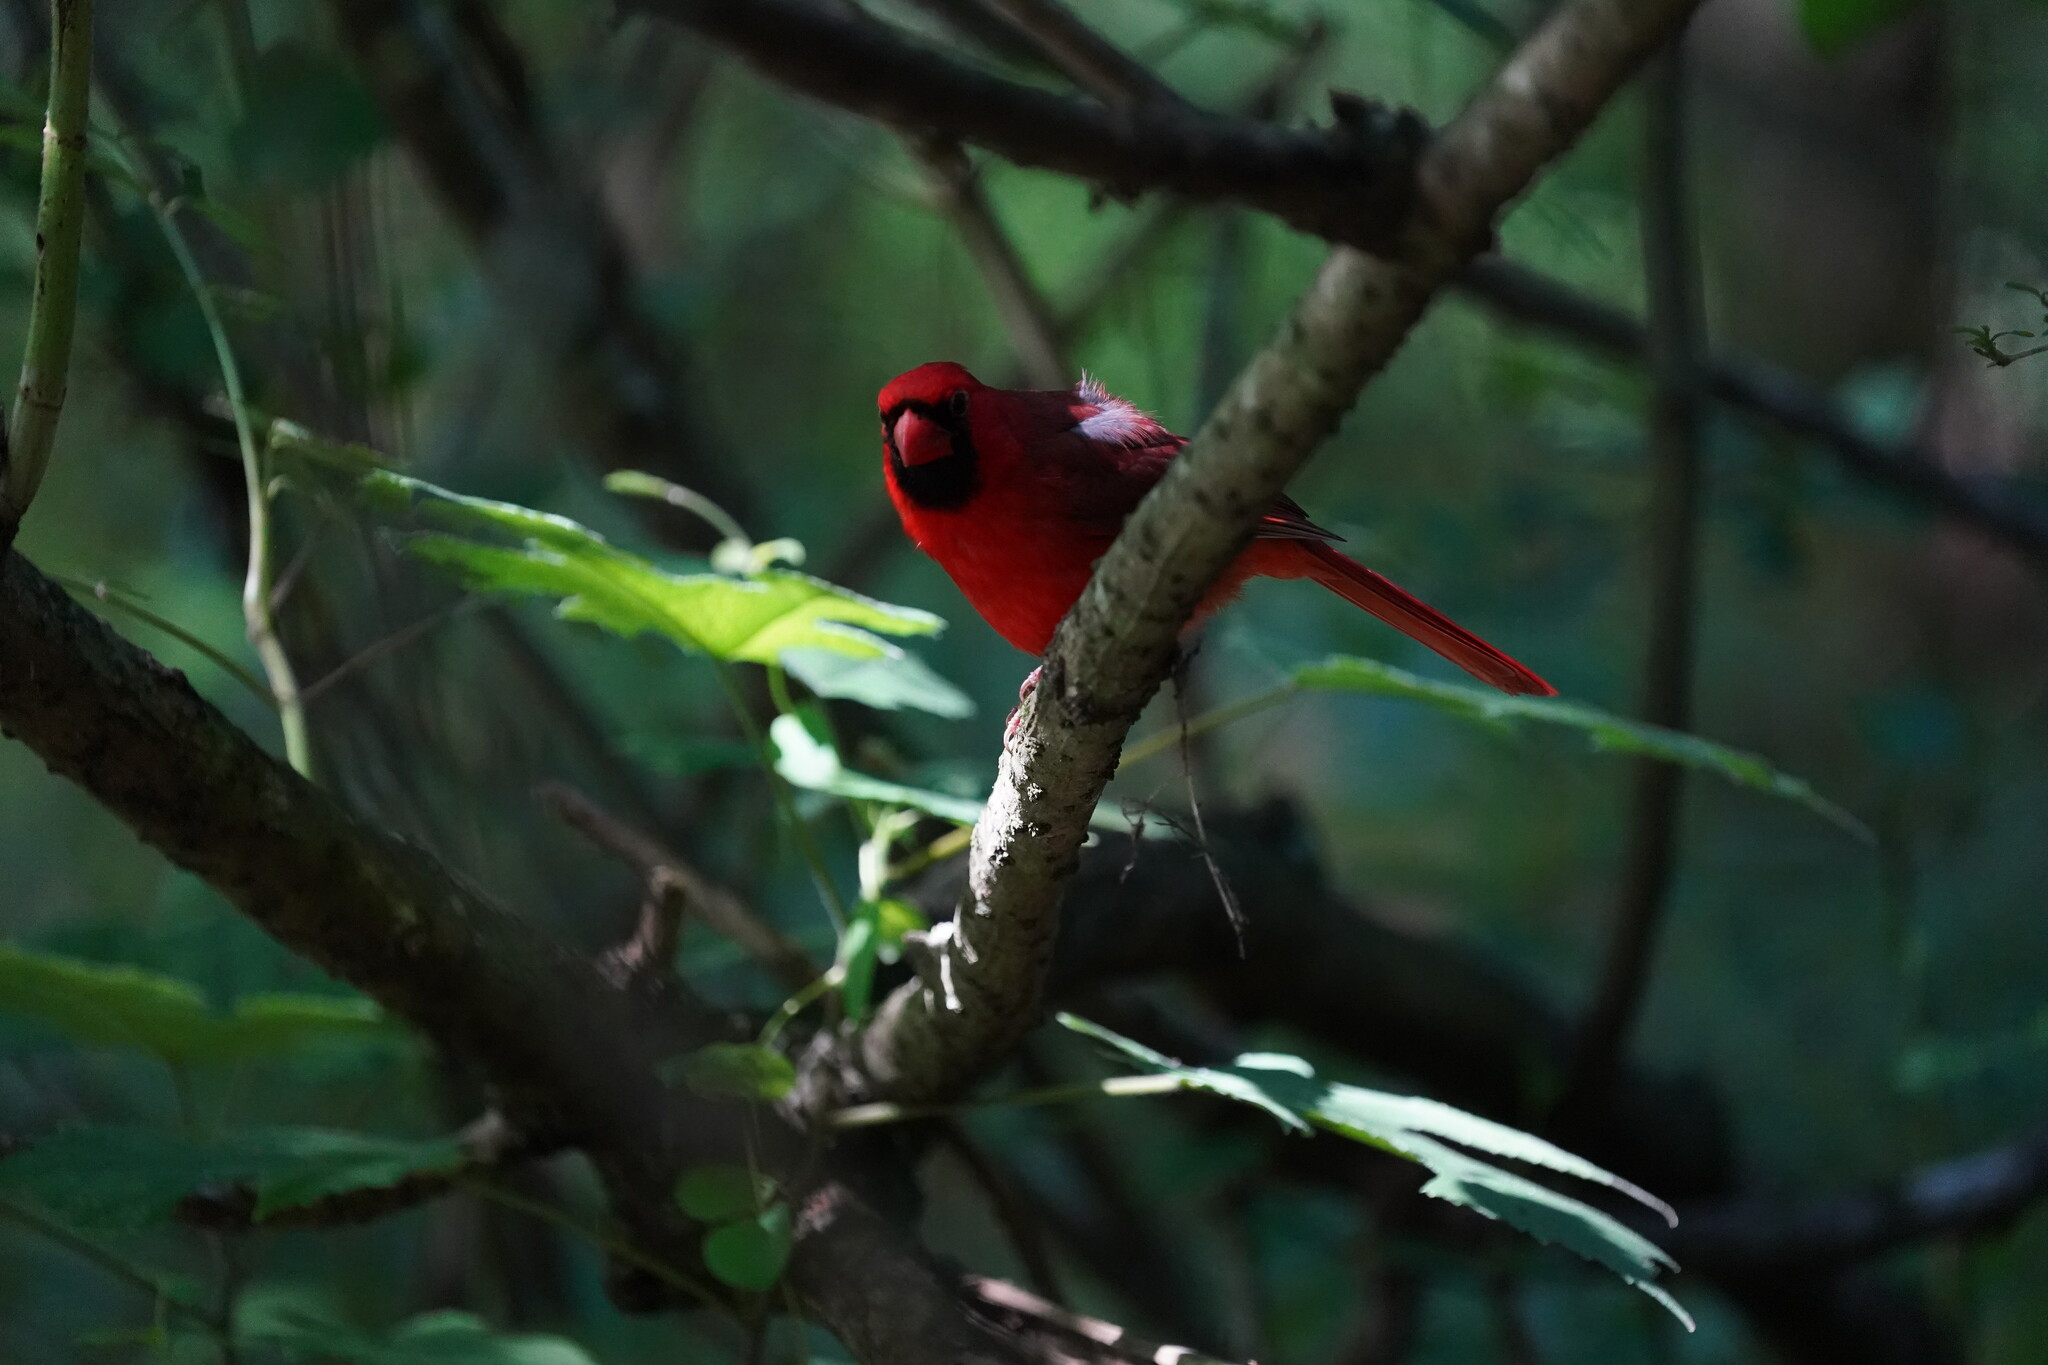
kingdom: Animalia
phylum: Chordata
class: Aves
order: Passeriformes
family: Cardinalidae
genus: Cardinalis
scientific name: Cardinalis cardinalis
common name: Northern cardinal
